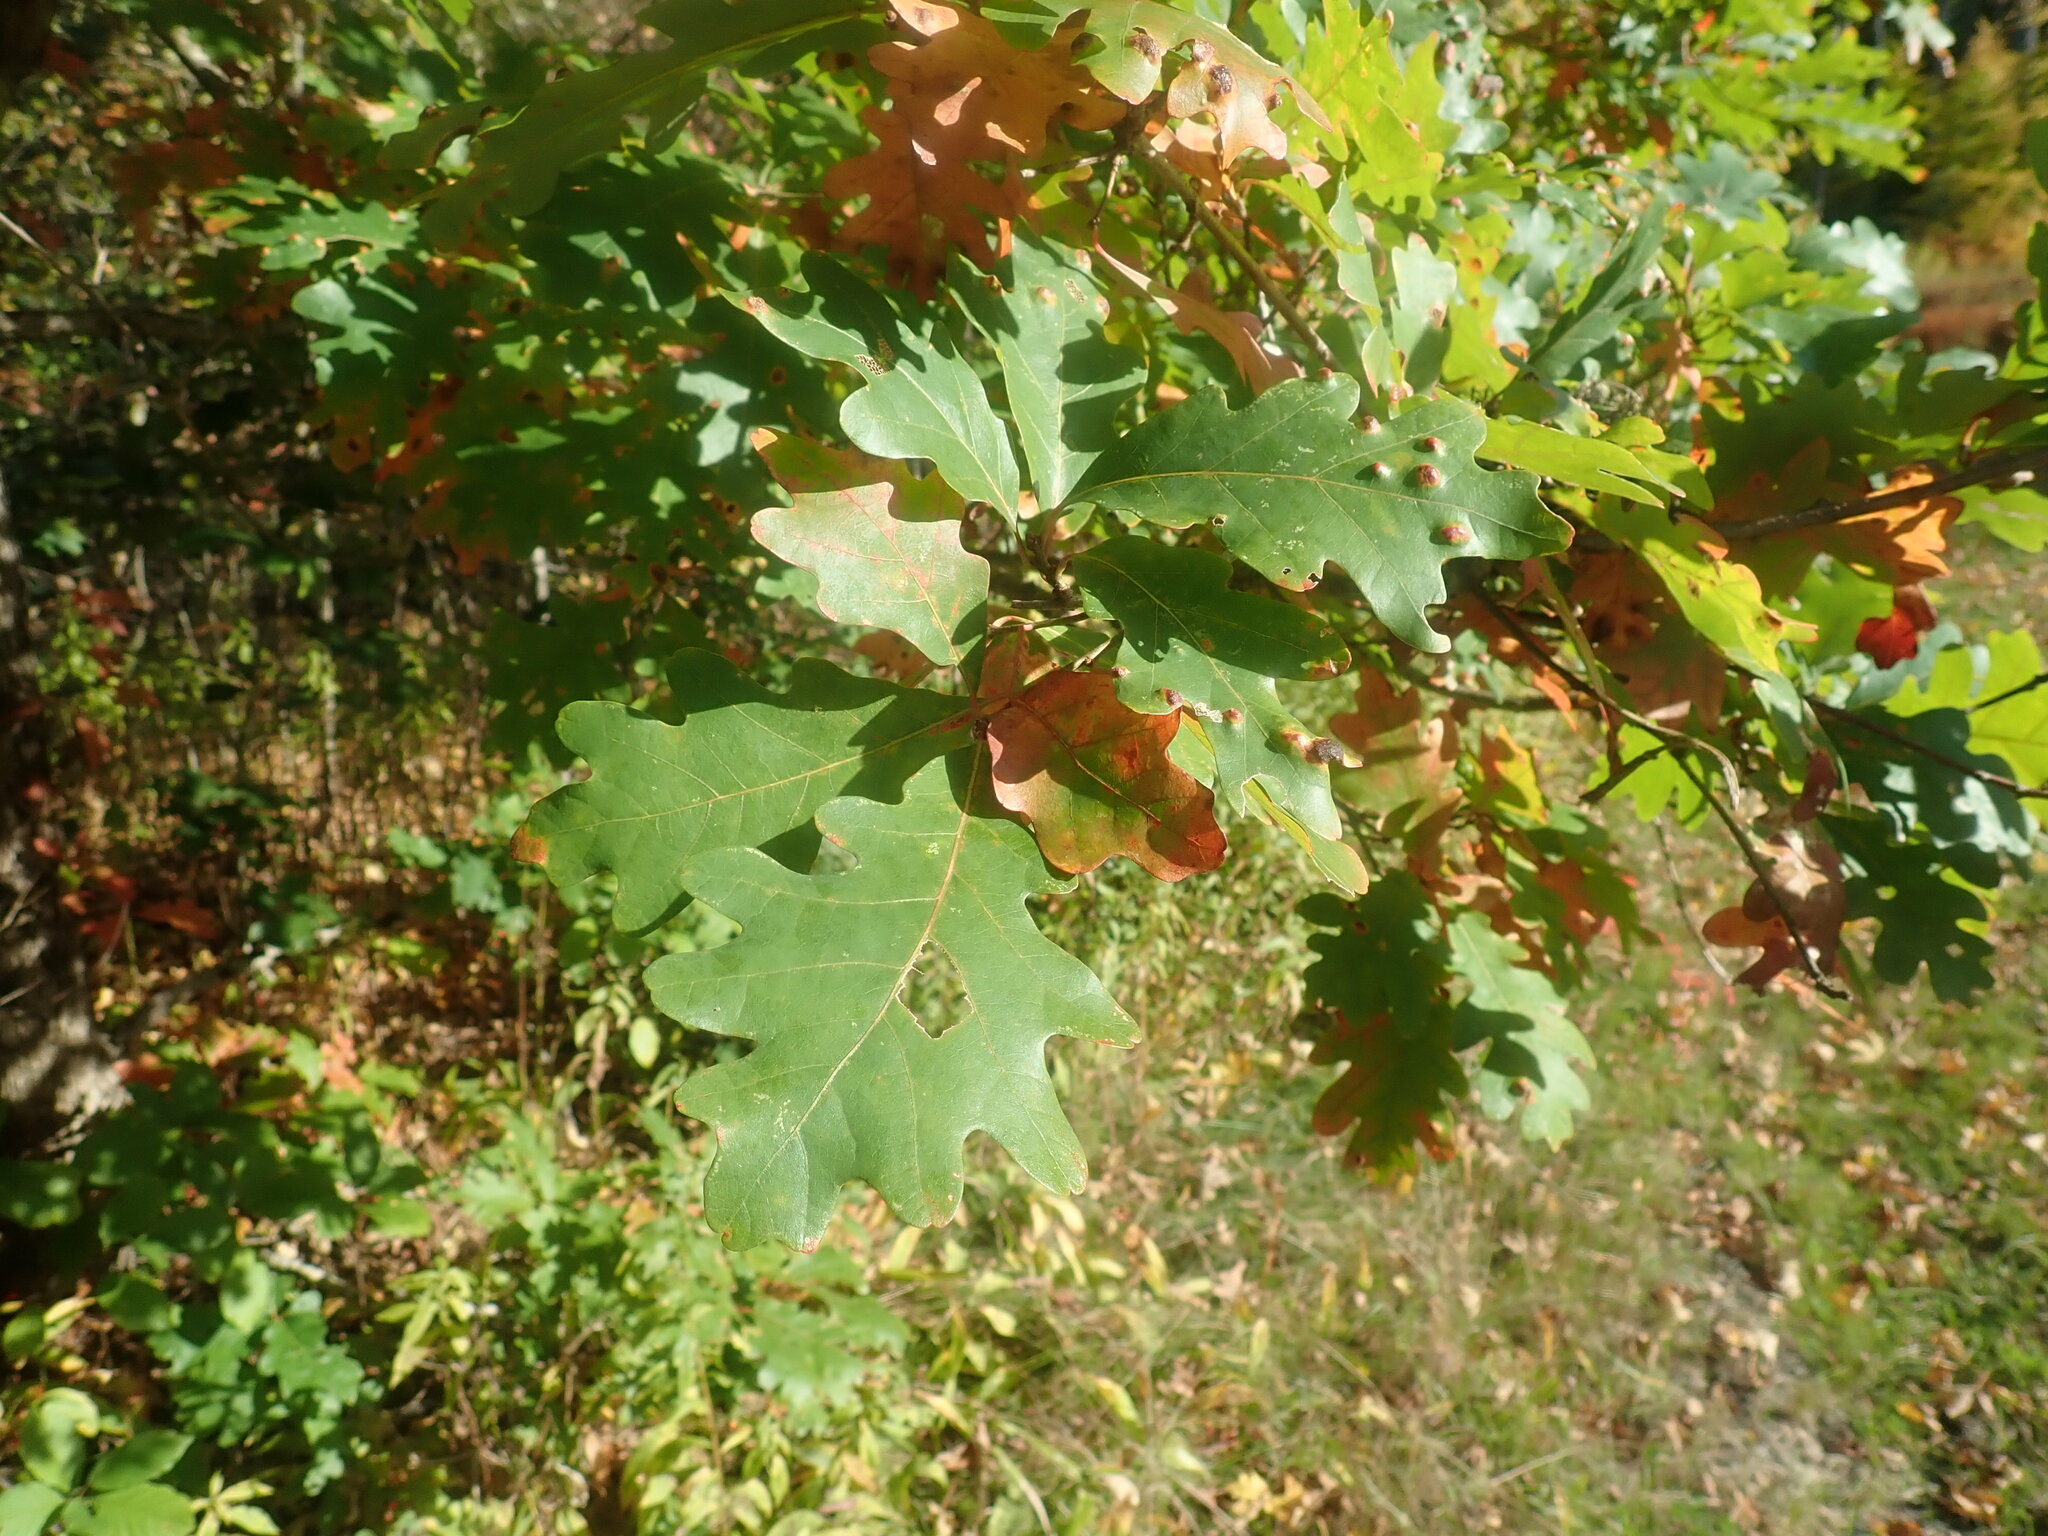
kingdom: Plantae
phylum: Tracheophyta
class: Magnoliopsida
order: Fagales
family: Fagaceae
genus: Quercus
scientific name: Quercus alba
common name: White oak
